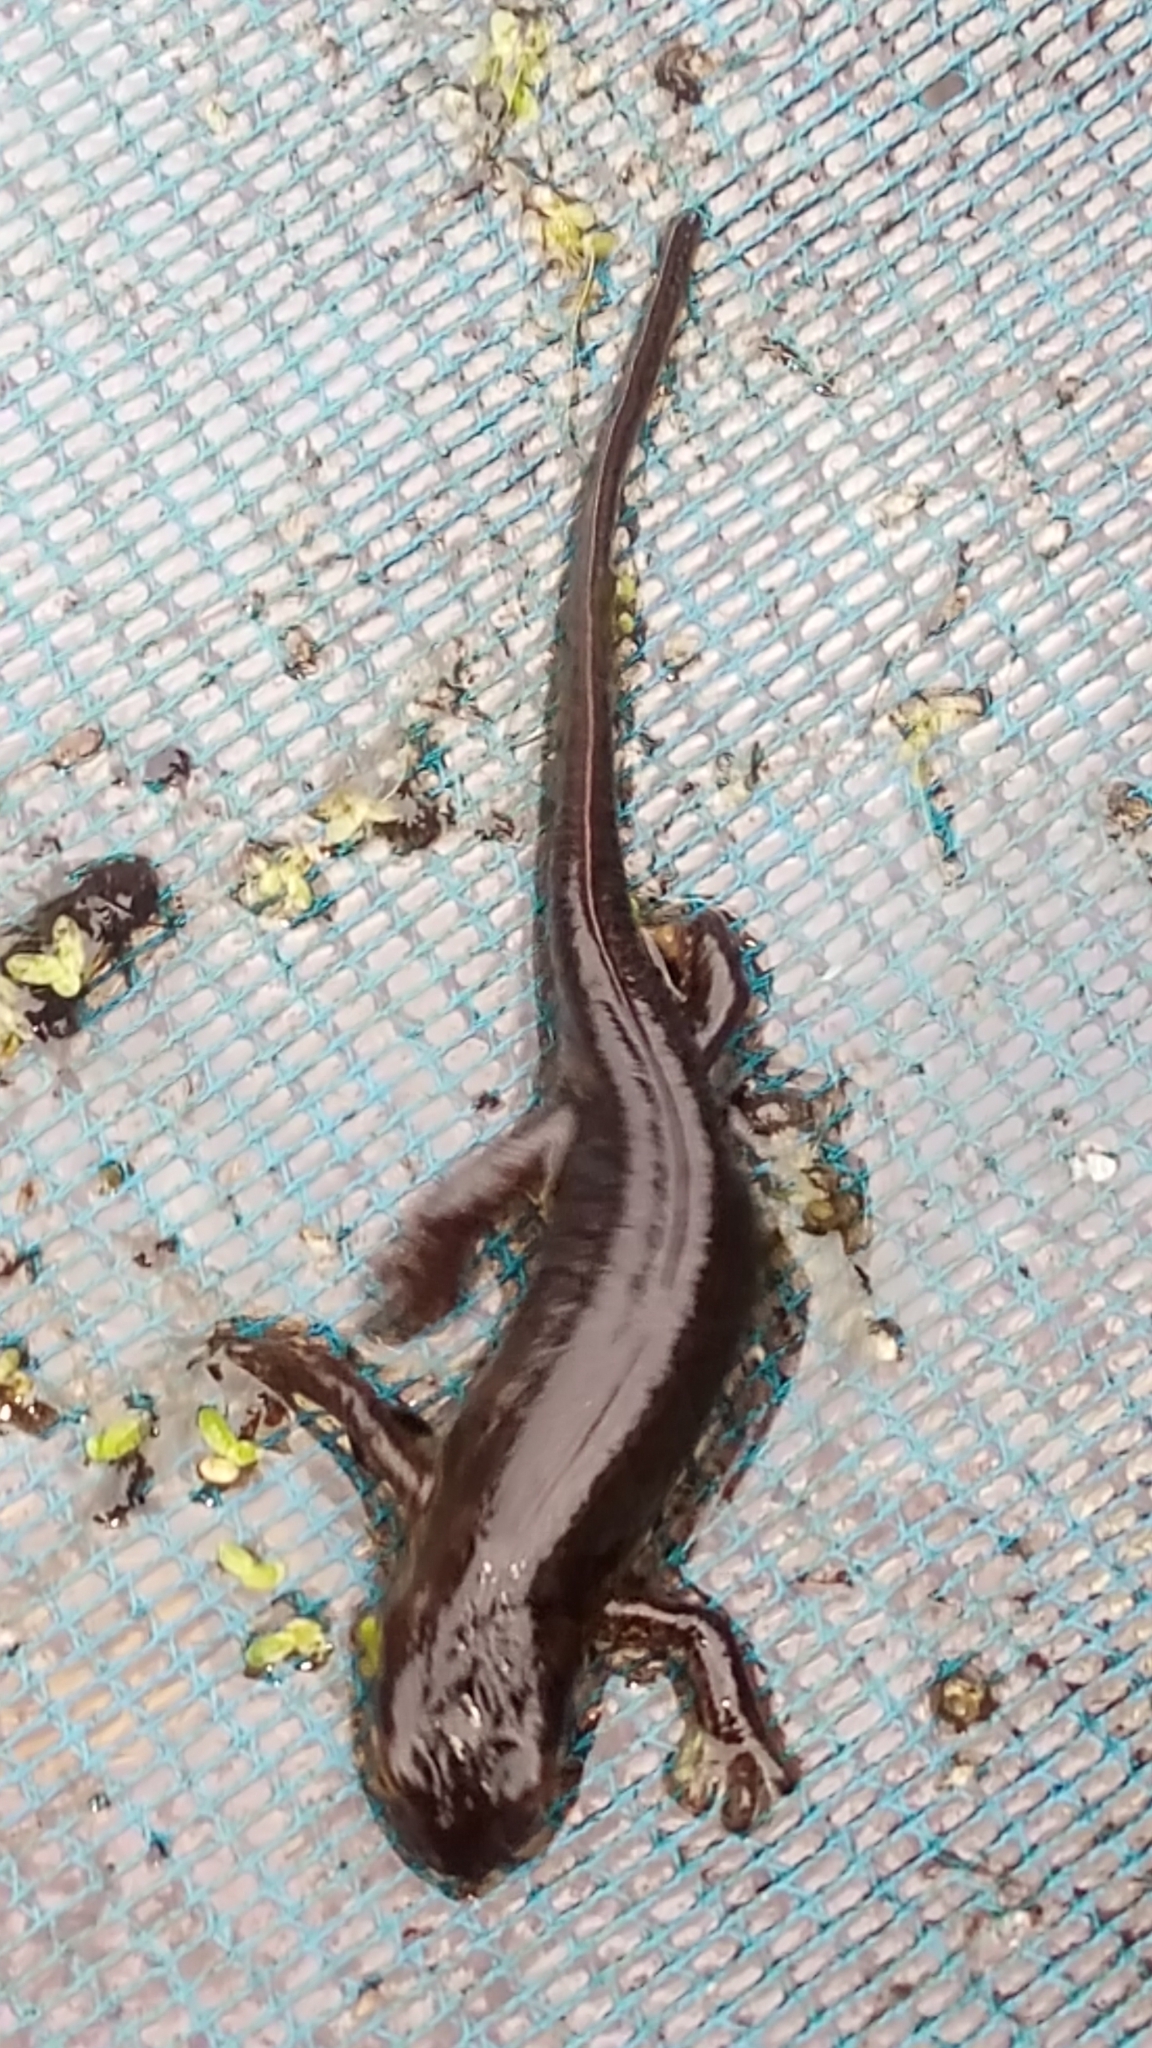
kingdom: Animalia
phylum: Chordata
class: Amphibia
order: Caudata
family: Salamandridae
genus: Lissotriton
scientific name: Lissotriton helveticus
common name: Palmate newt
